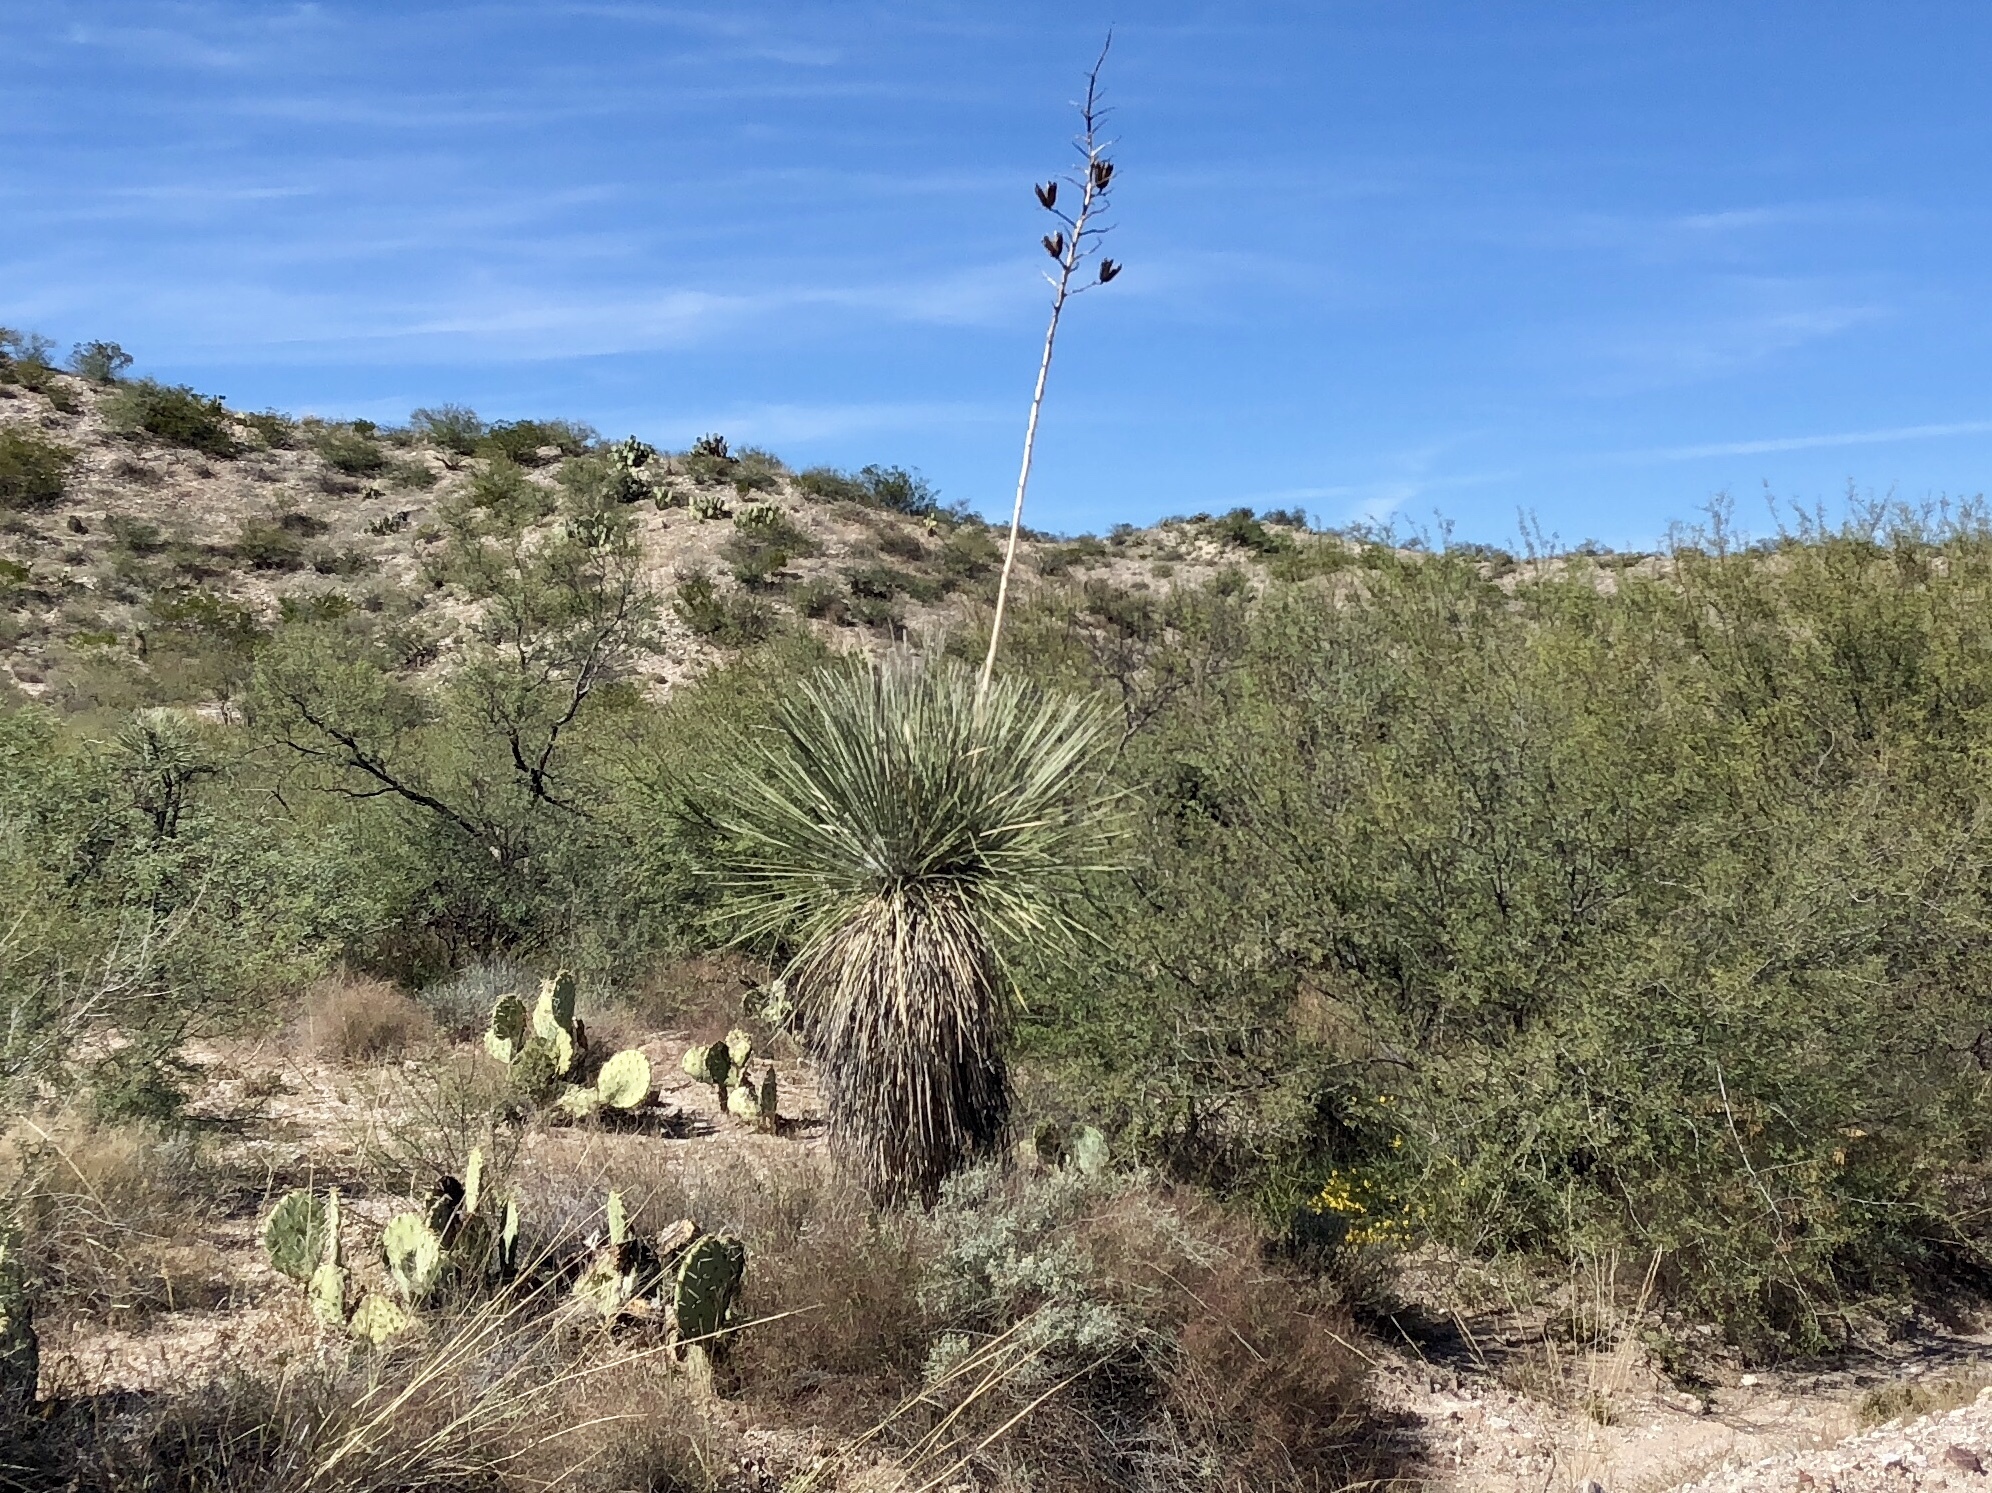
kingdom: Plantae
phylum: Tracheophyta
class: Liliopsida
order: Asparagales
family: Asparagaceae
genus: Yucca
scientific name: Yucca elata
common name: Palmella
